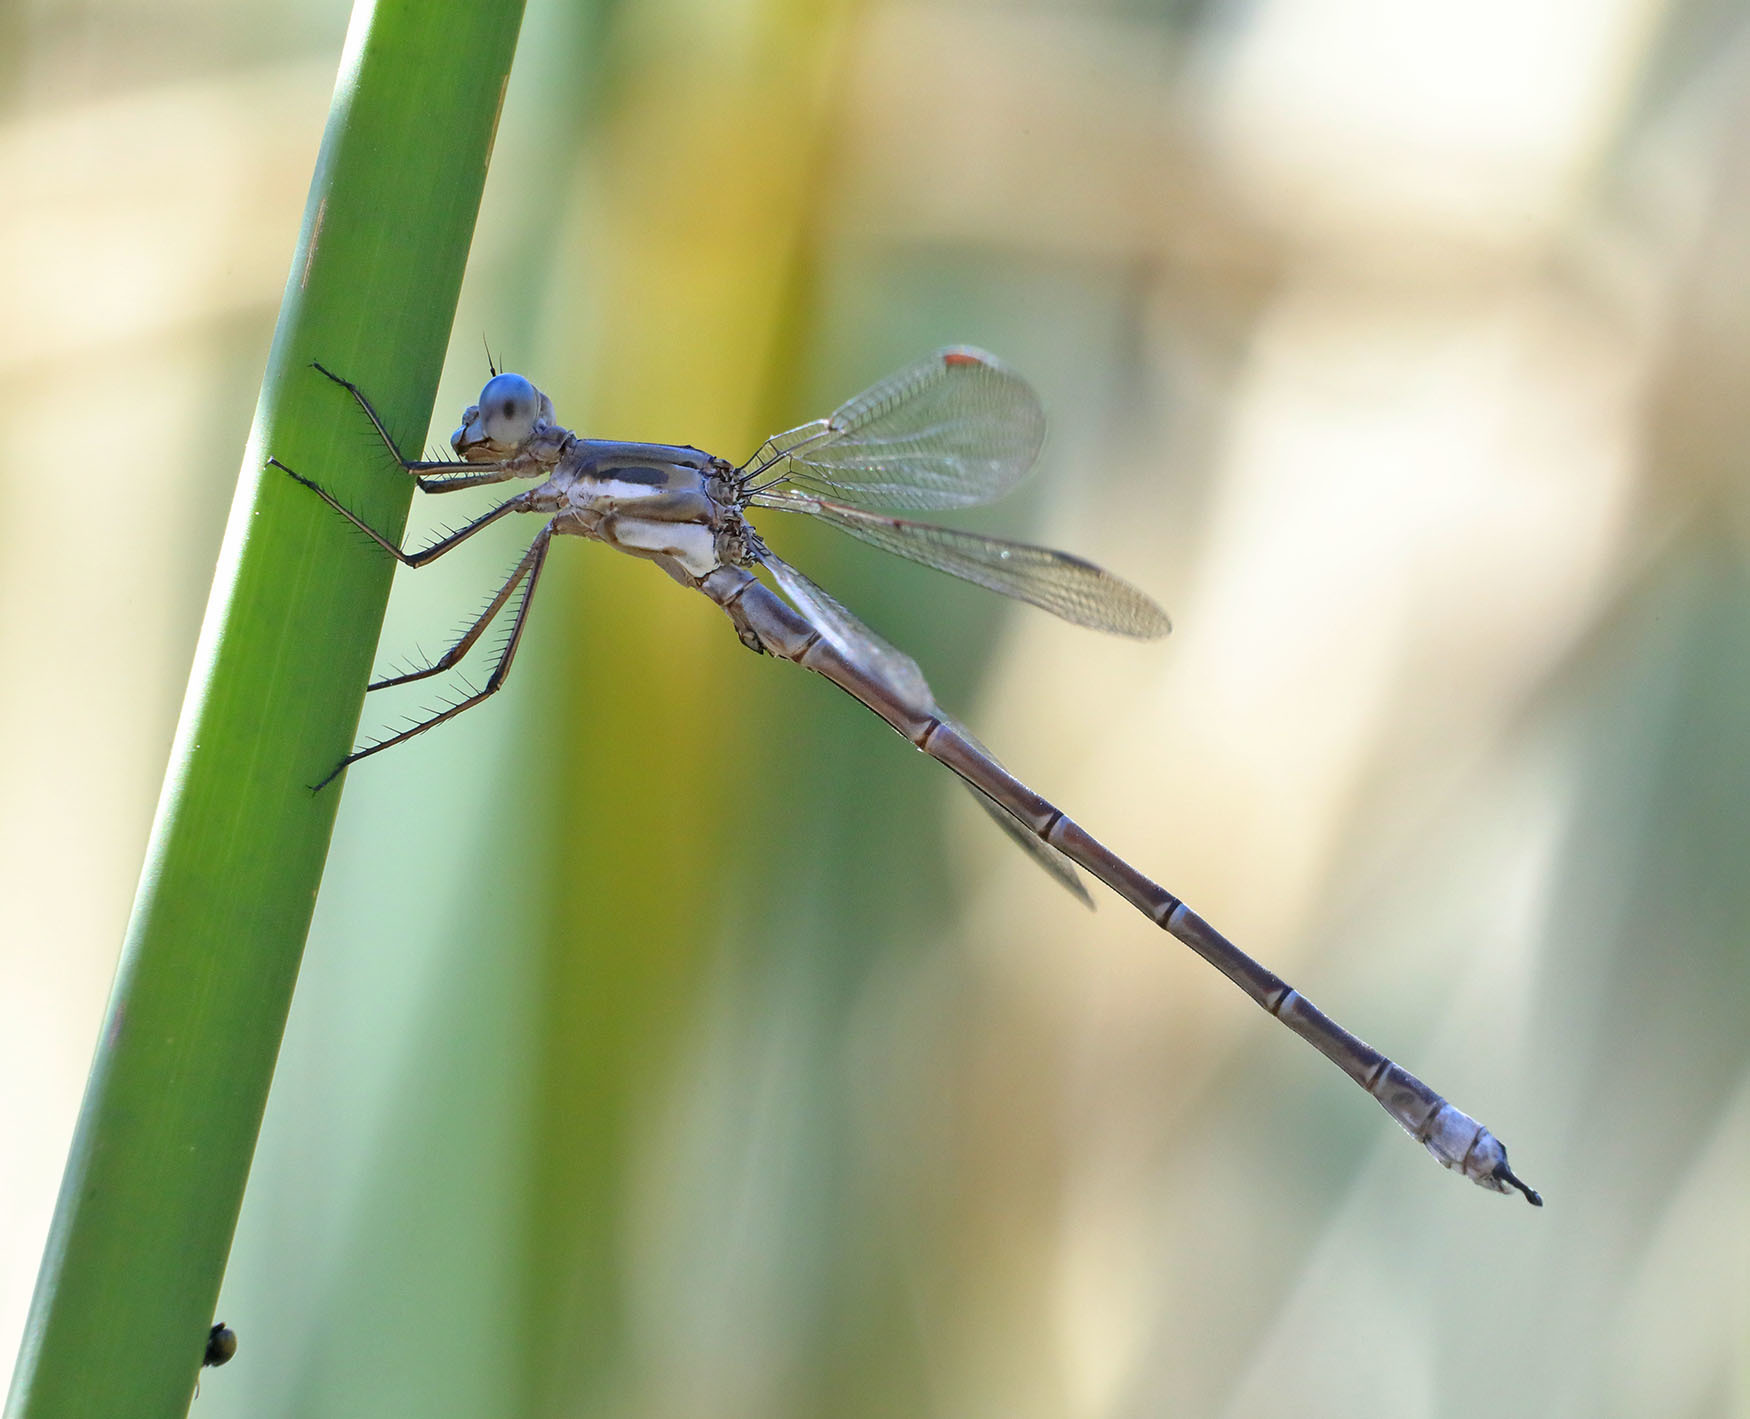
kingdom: Animalia
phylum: Arthropoda
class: Insecta
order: Odonata
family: Lestidae
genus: Archilestes
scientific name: Archilestes californicus
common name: California spreadwing
